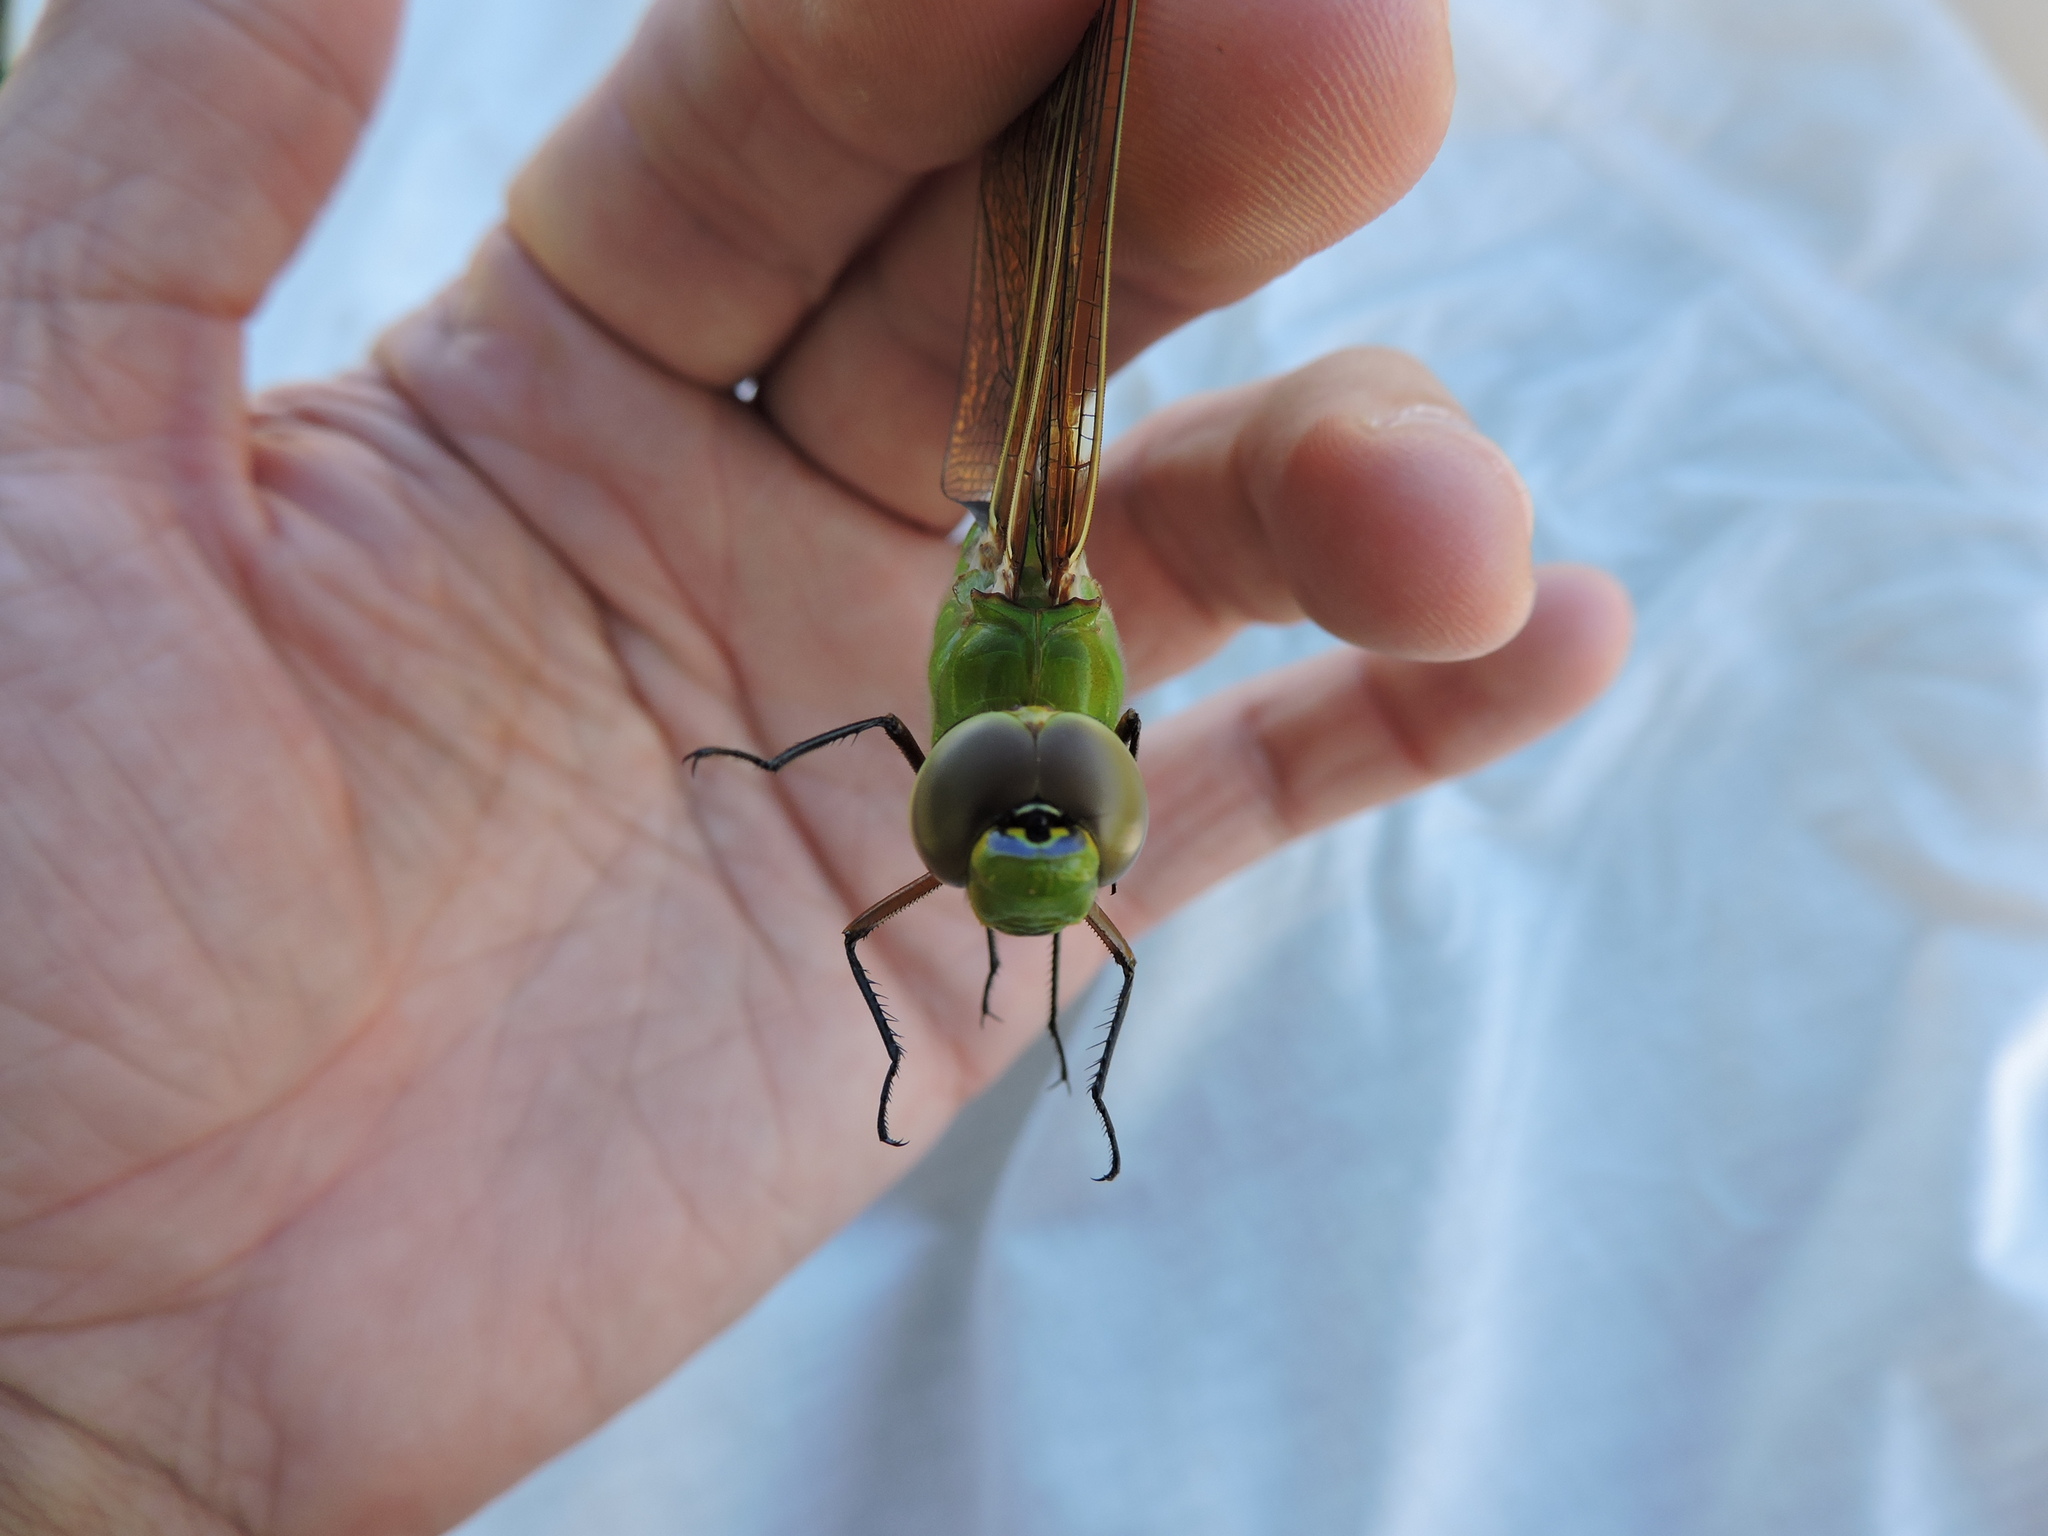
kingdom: Animalia
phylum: Arthropoda
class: Insecta
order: Odonata
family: Aeshnidae
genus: Anax
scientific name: Anax junius
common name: Common green darner
